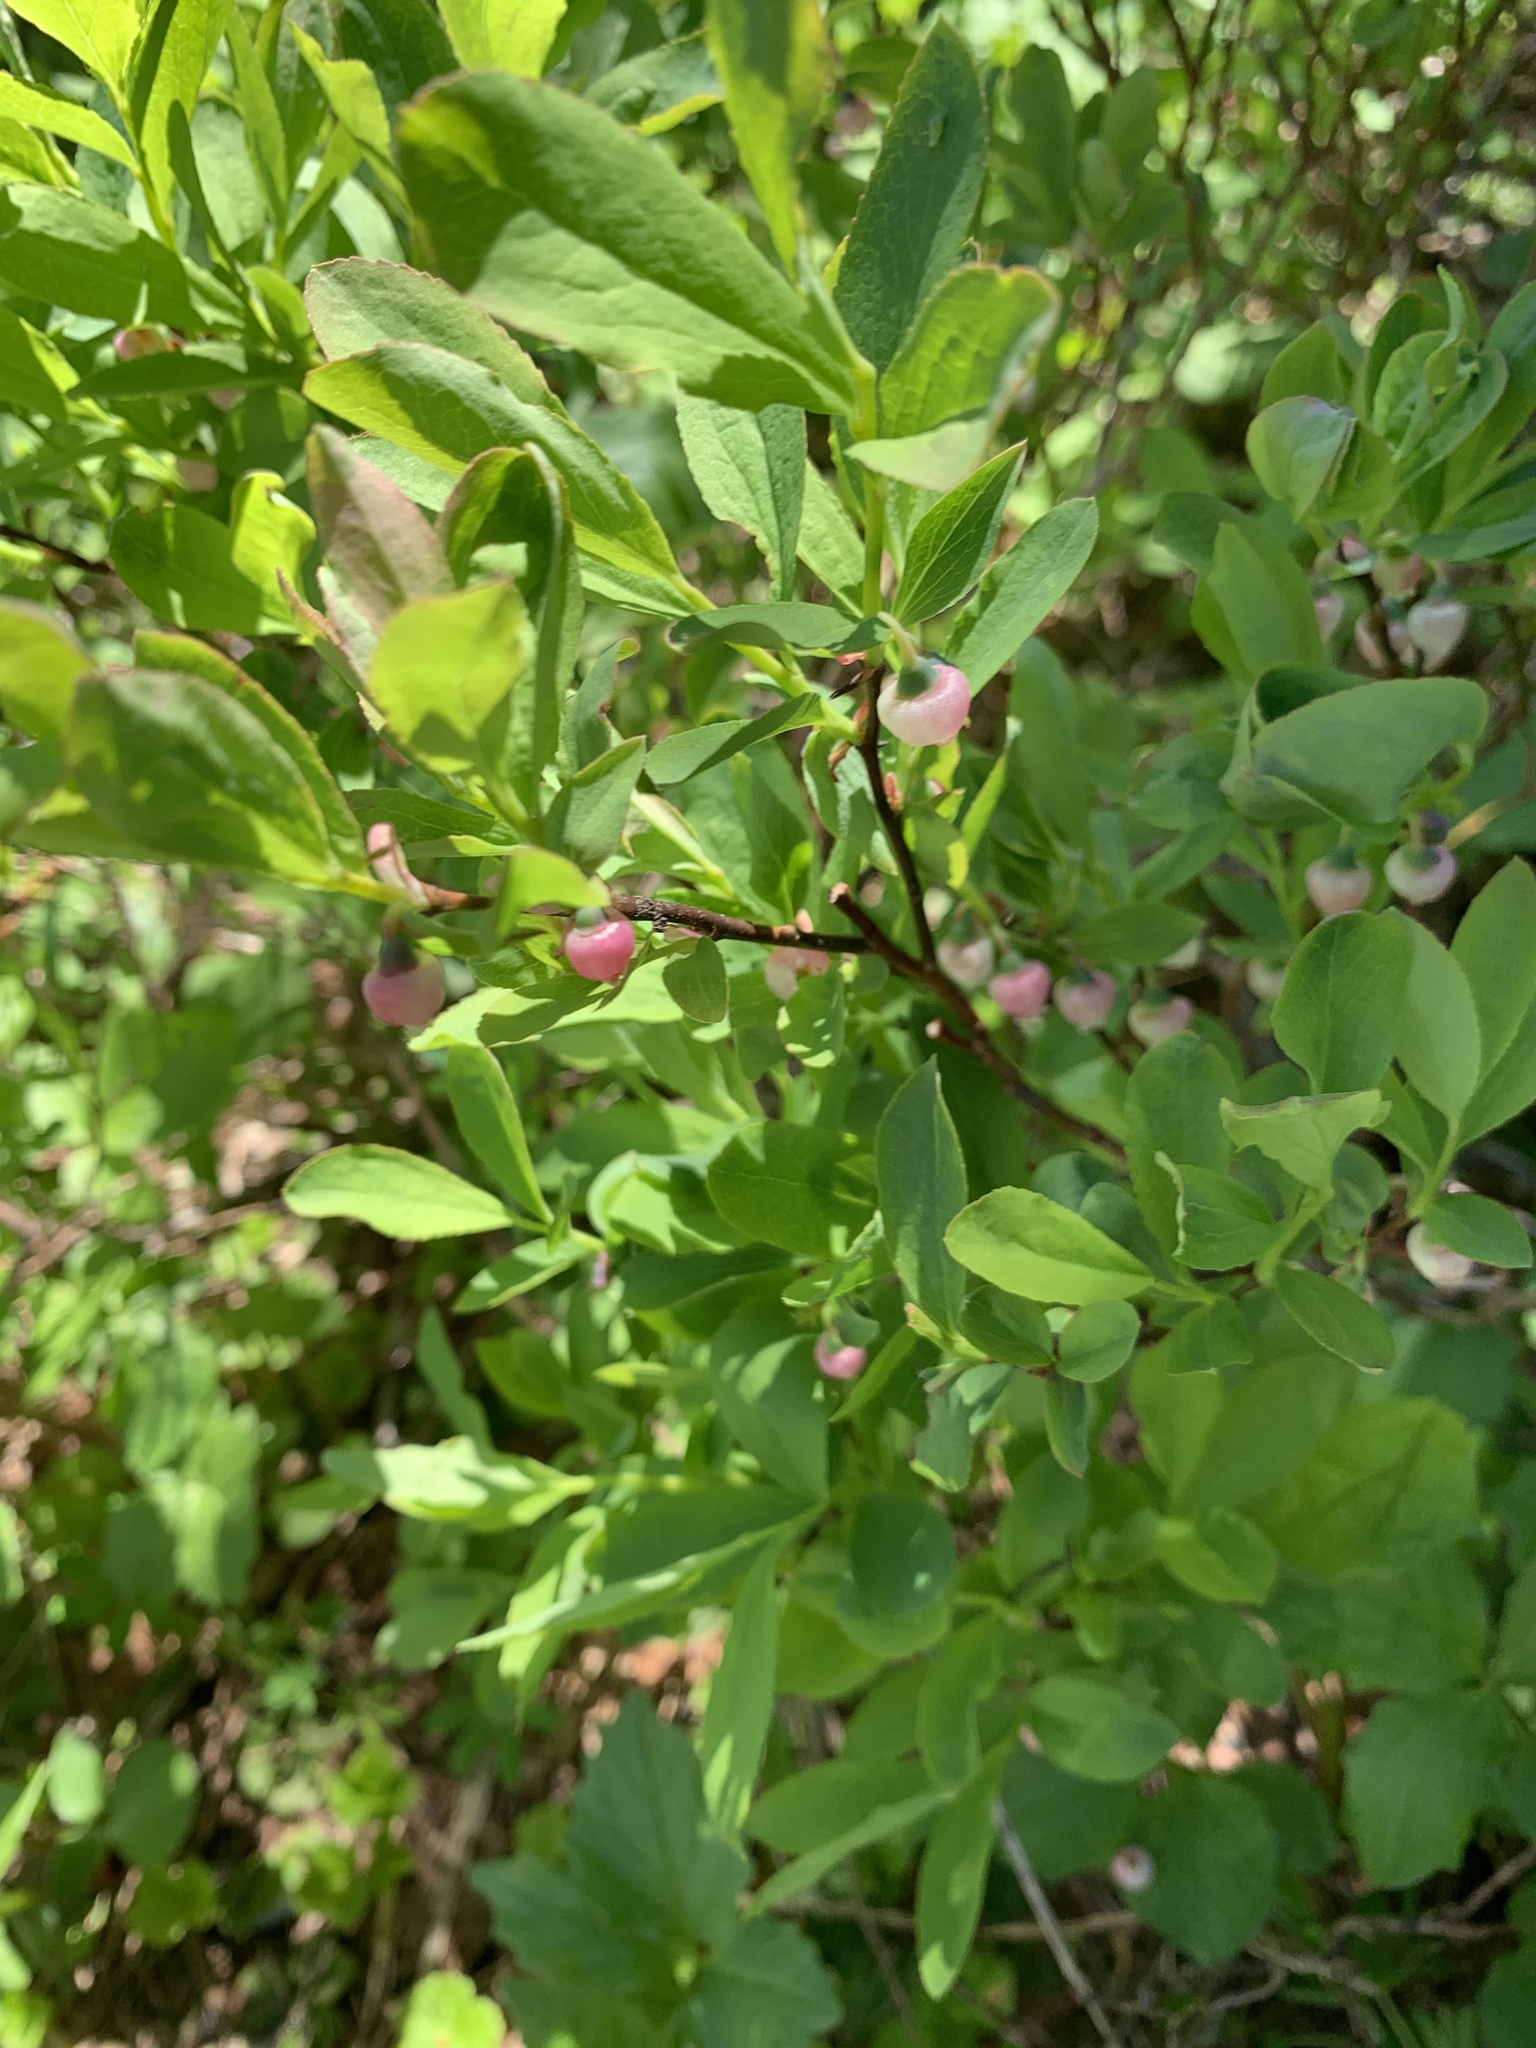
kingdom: Plantae
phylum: Tracheophyta
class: Magnoliopsida
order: Ericales
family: Ericaceae
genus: Vaccinium
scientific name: Vaccinium deliciosum
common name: Cascade bilberry
